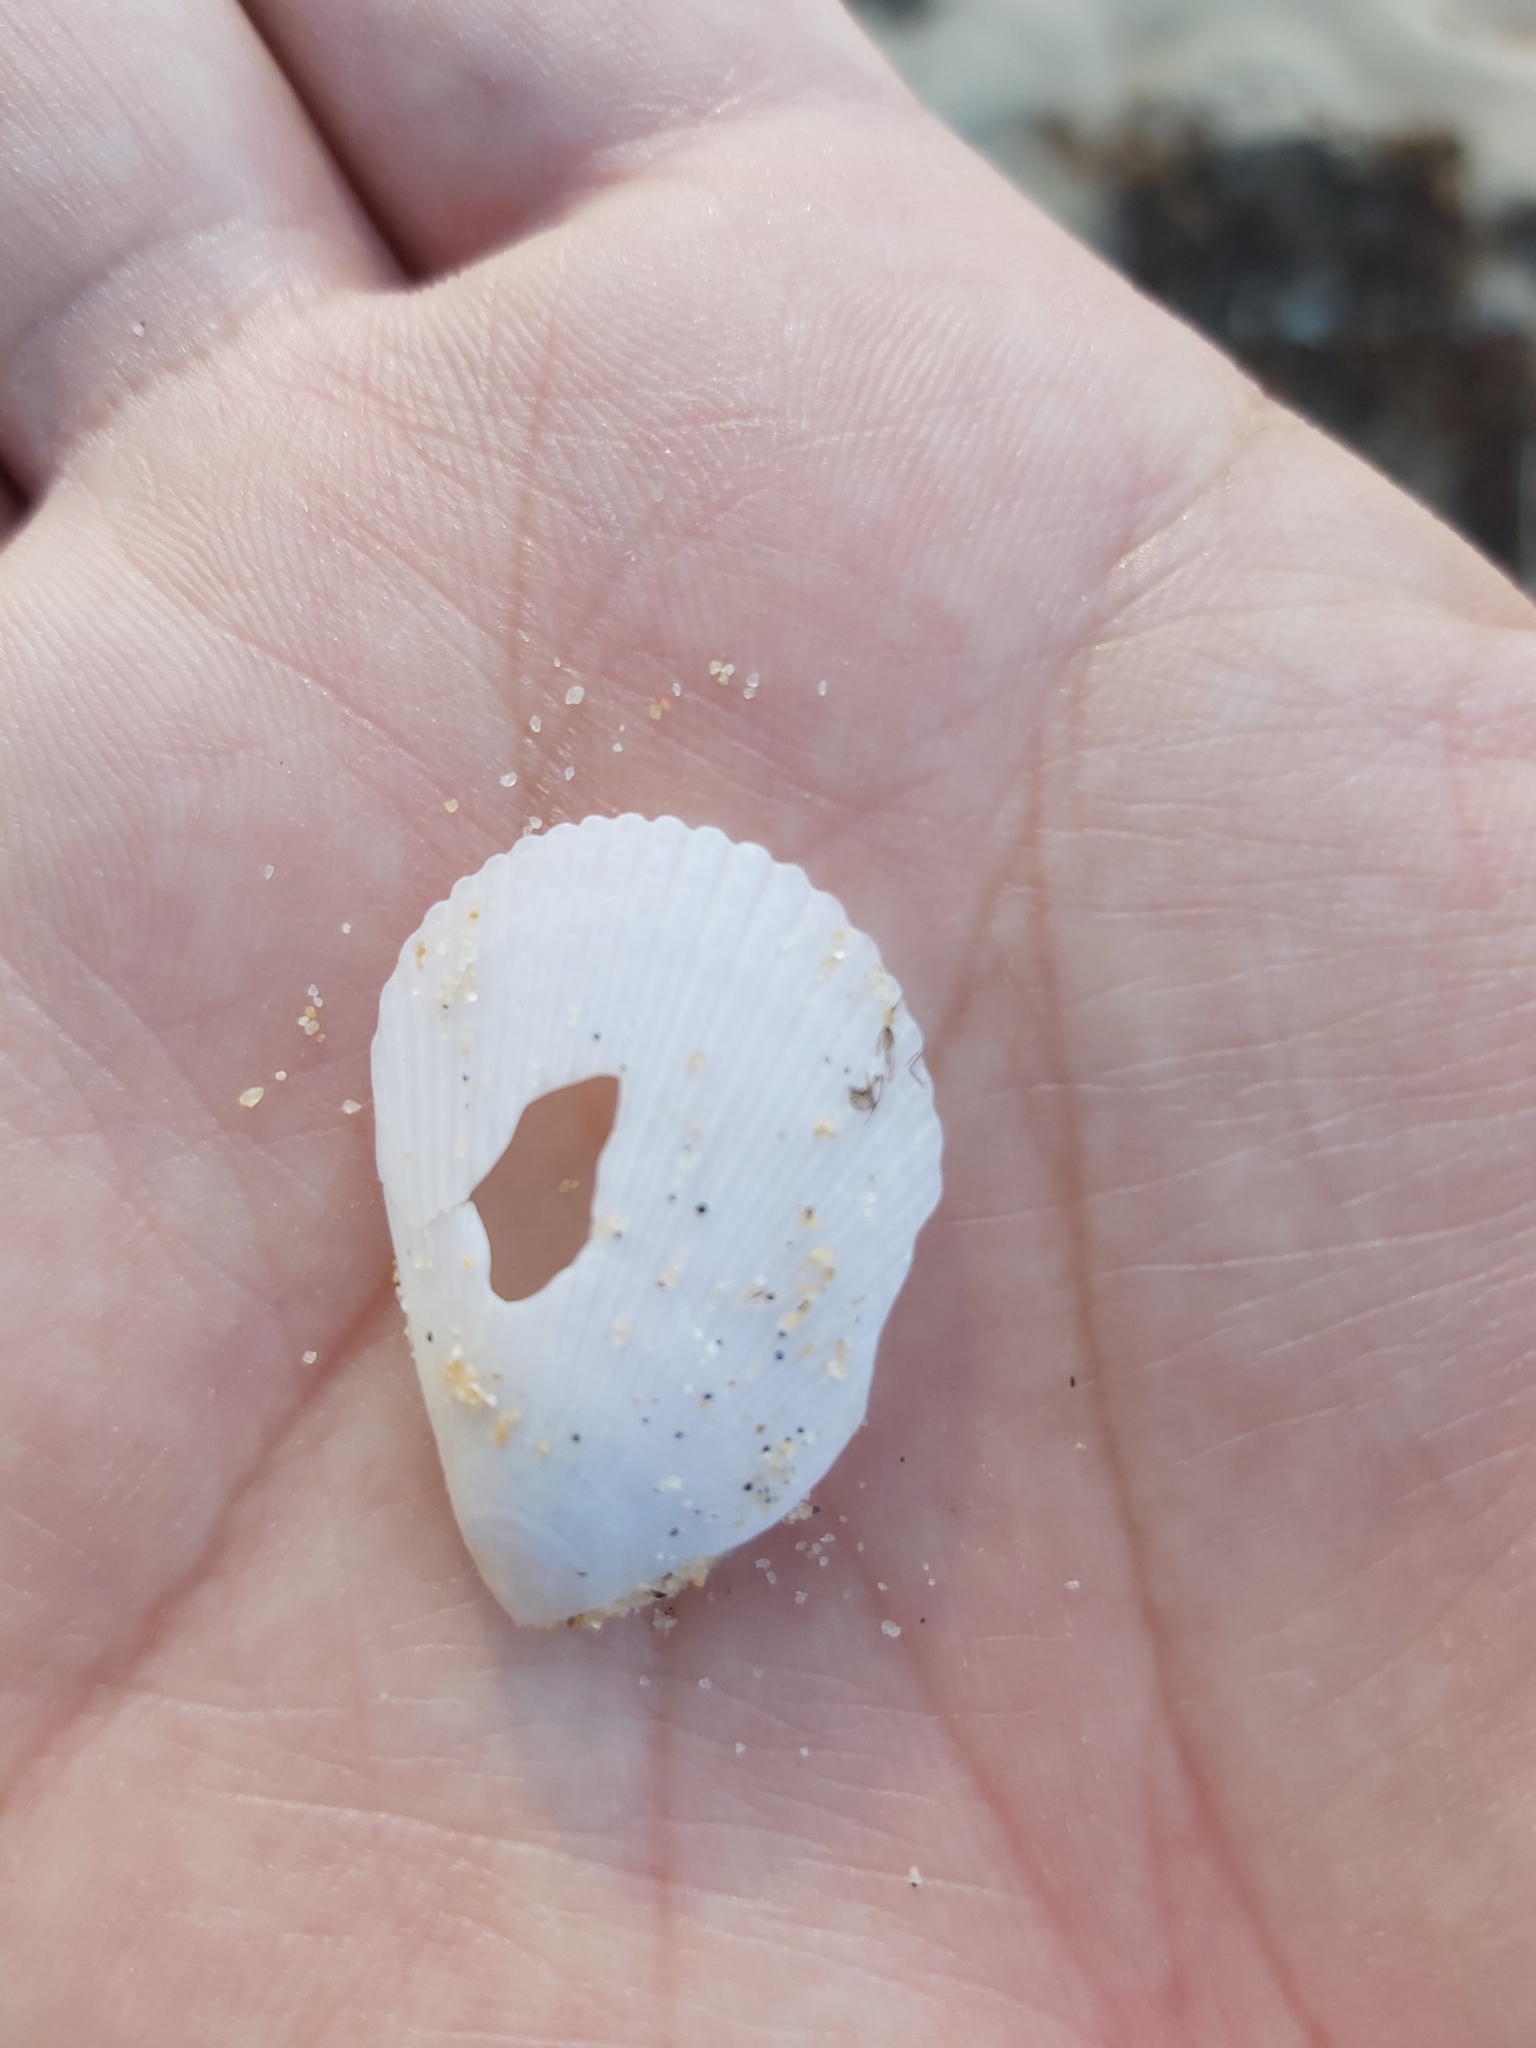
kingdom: Animalia
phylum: Mollusca
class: Bivalvia
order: Limida
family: Limidae
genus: Lima
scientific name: Lima nimbifer
